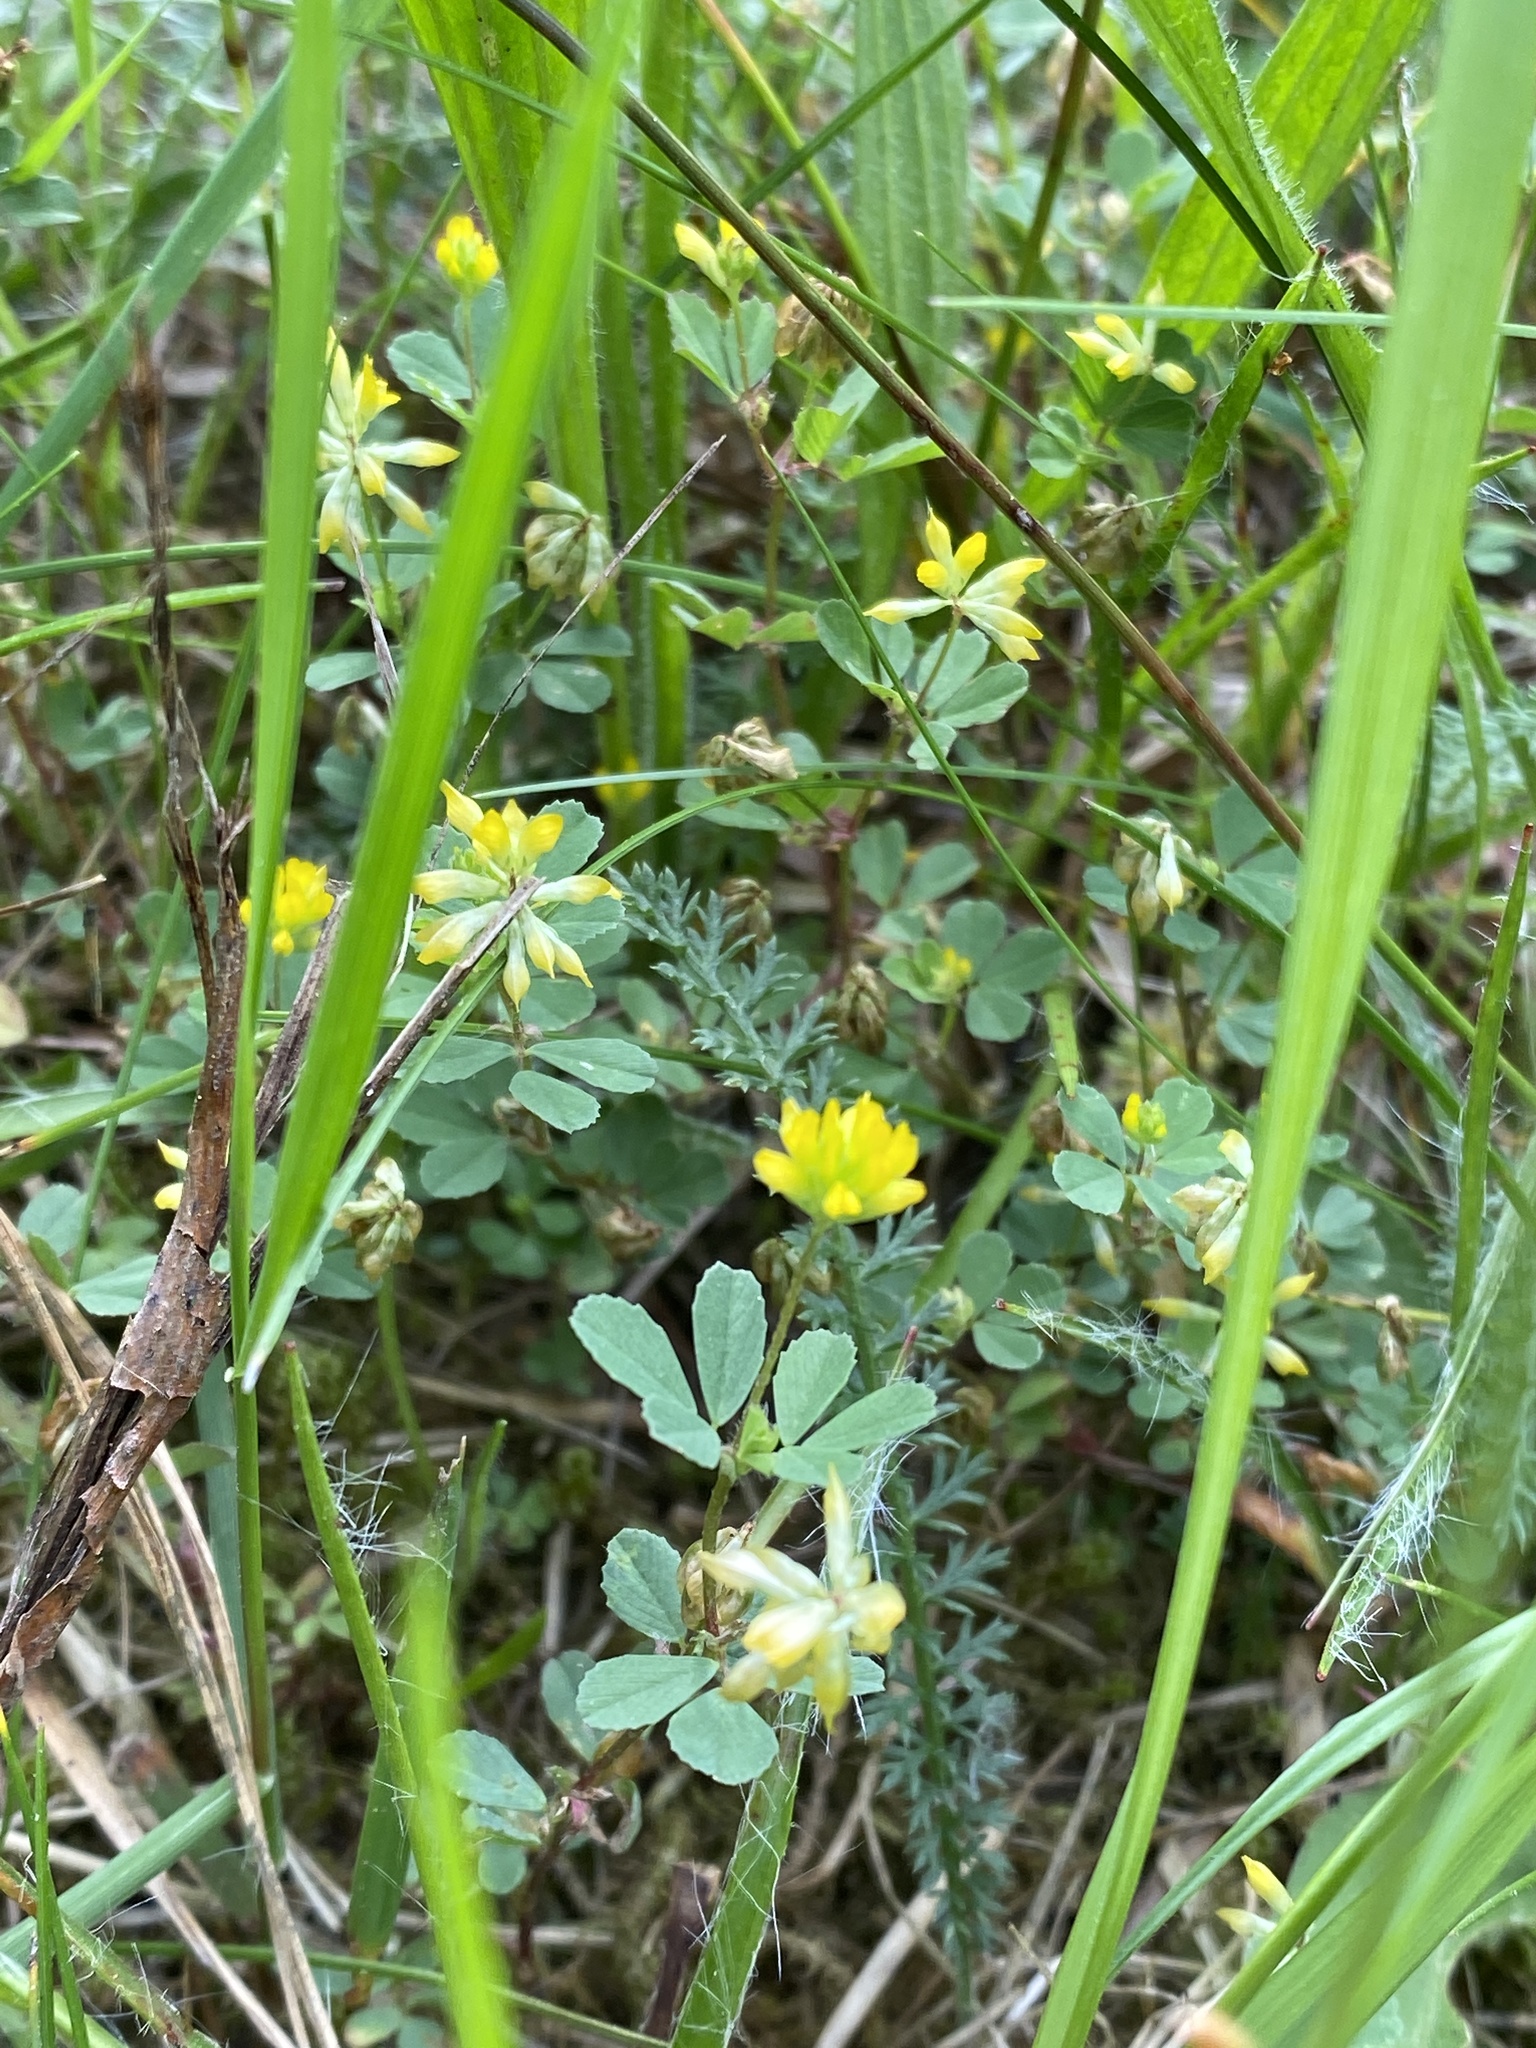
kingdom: Plantae
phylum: Tracheophyta
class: Magnoliopsida
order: Fabales
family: Fabaceae
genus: Trifolium
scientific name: Trifolium dubium
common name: Suckling clover
